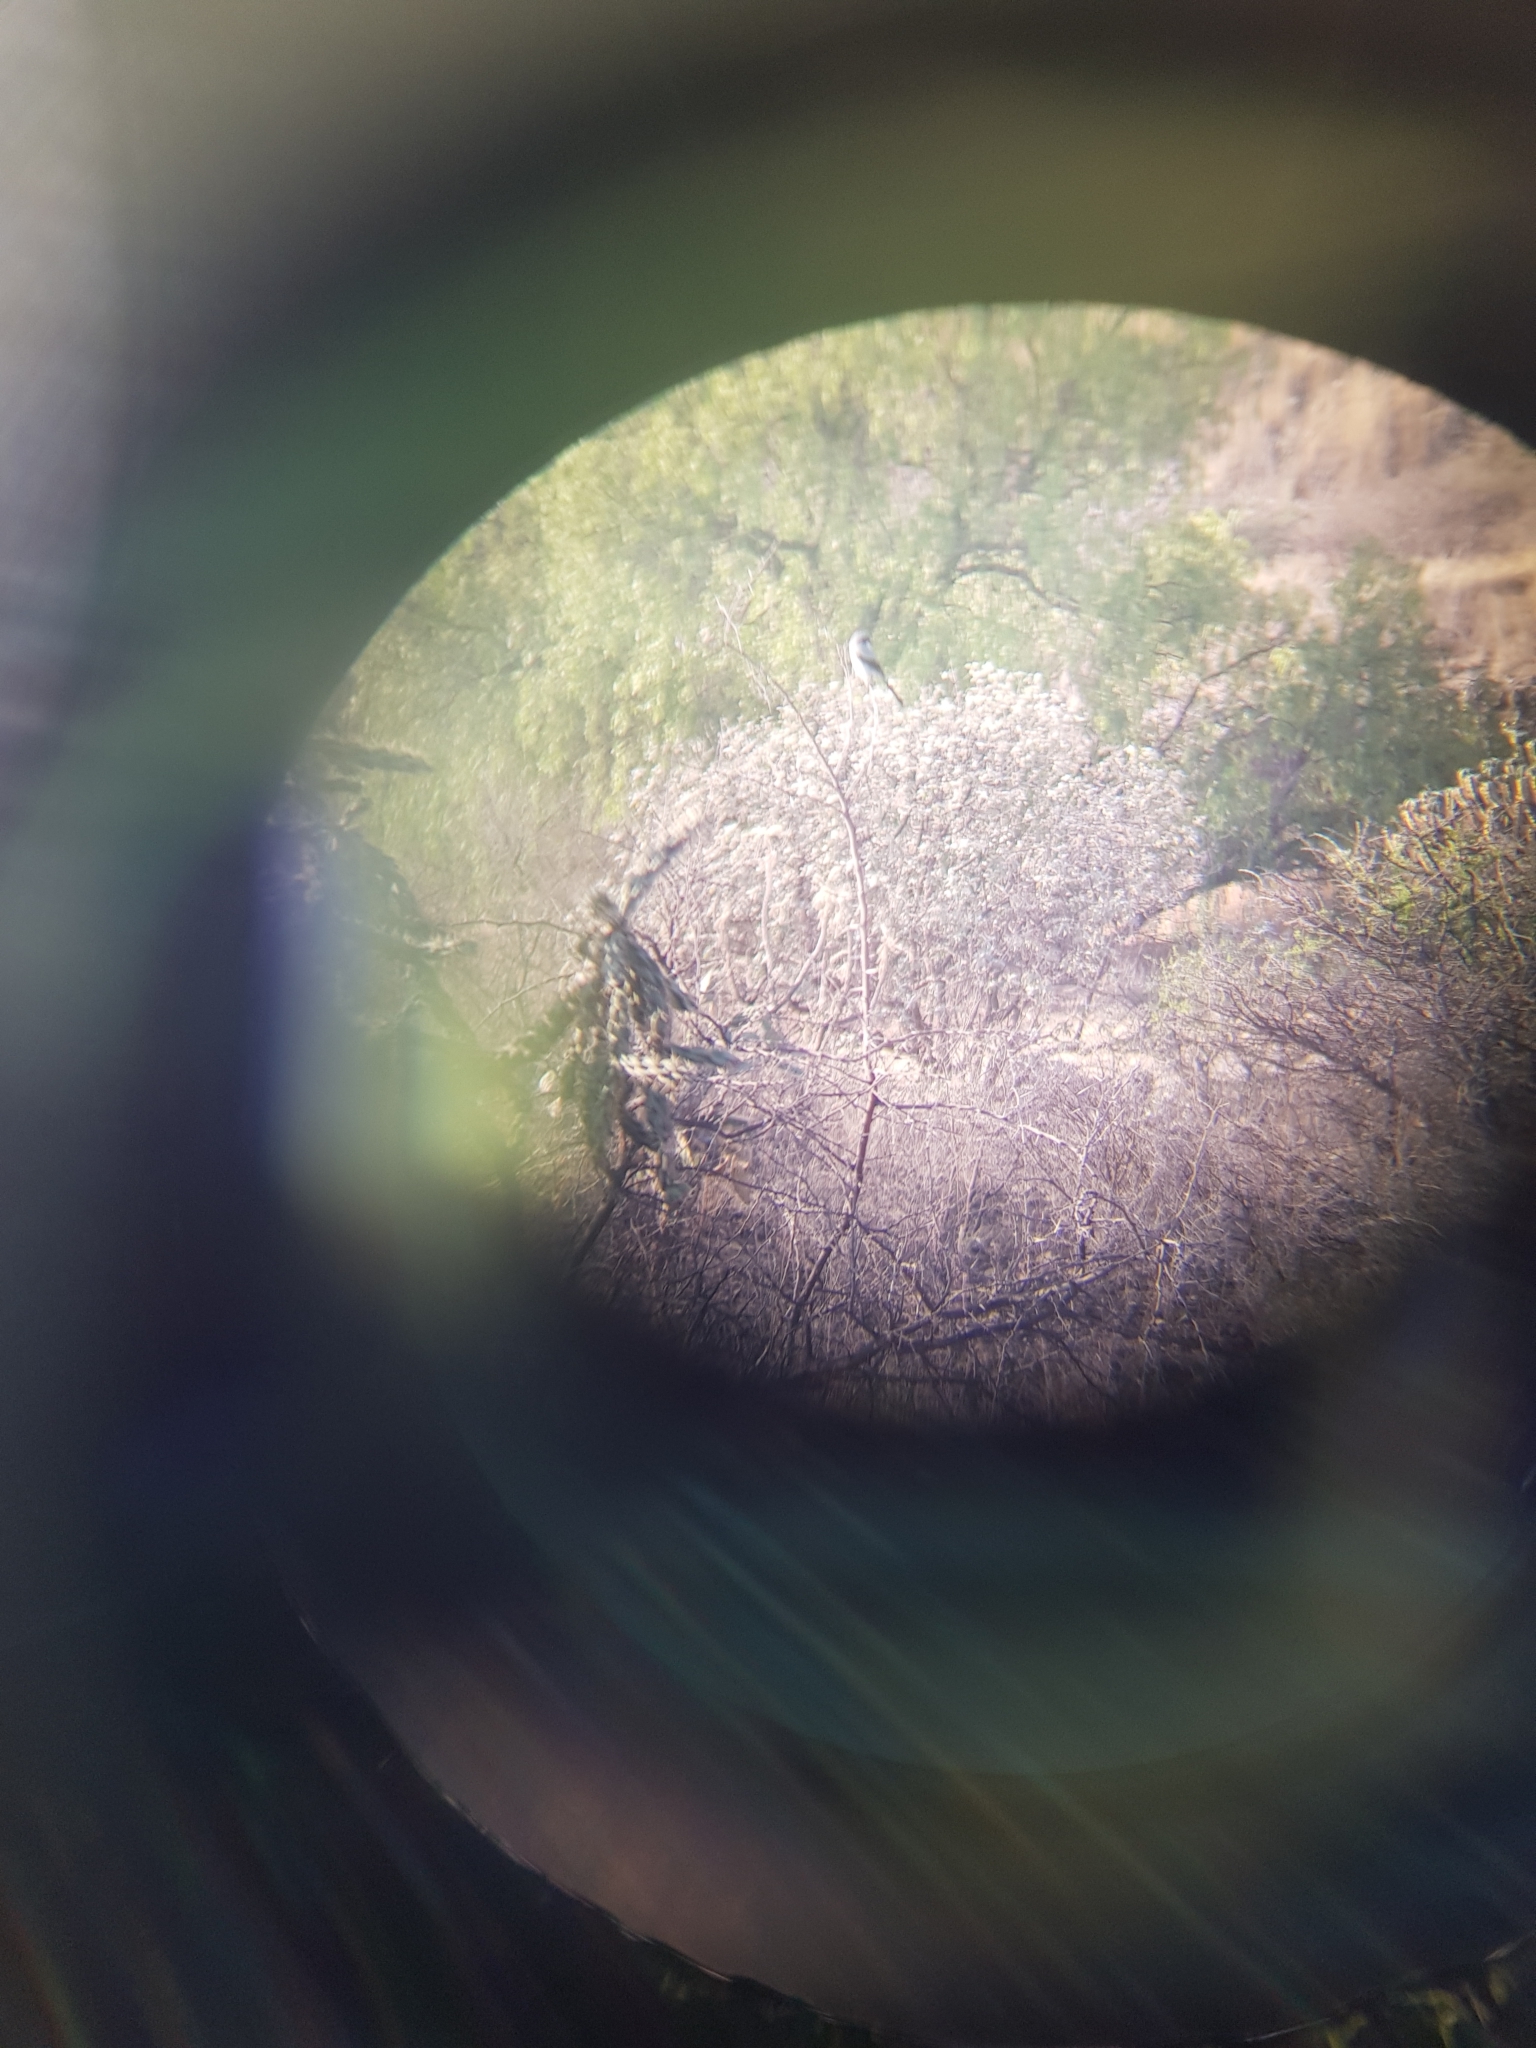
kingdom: Animalia
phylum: Chordata
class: Aves
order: Passeriformes
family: Laniidae
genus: Lanius
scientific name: Lanius ludovicianus
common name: Loggerhead shrike
